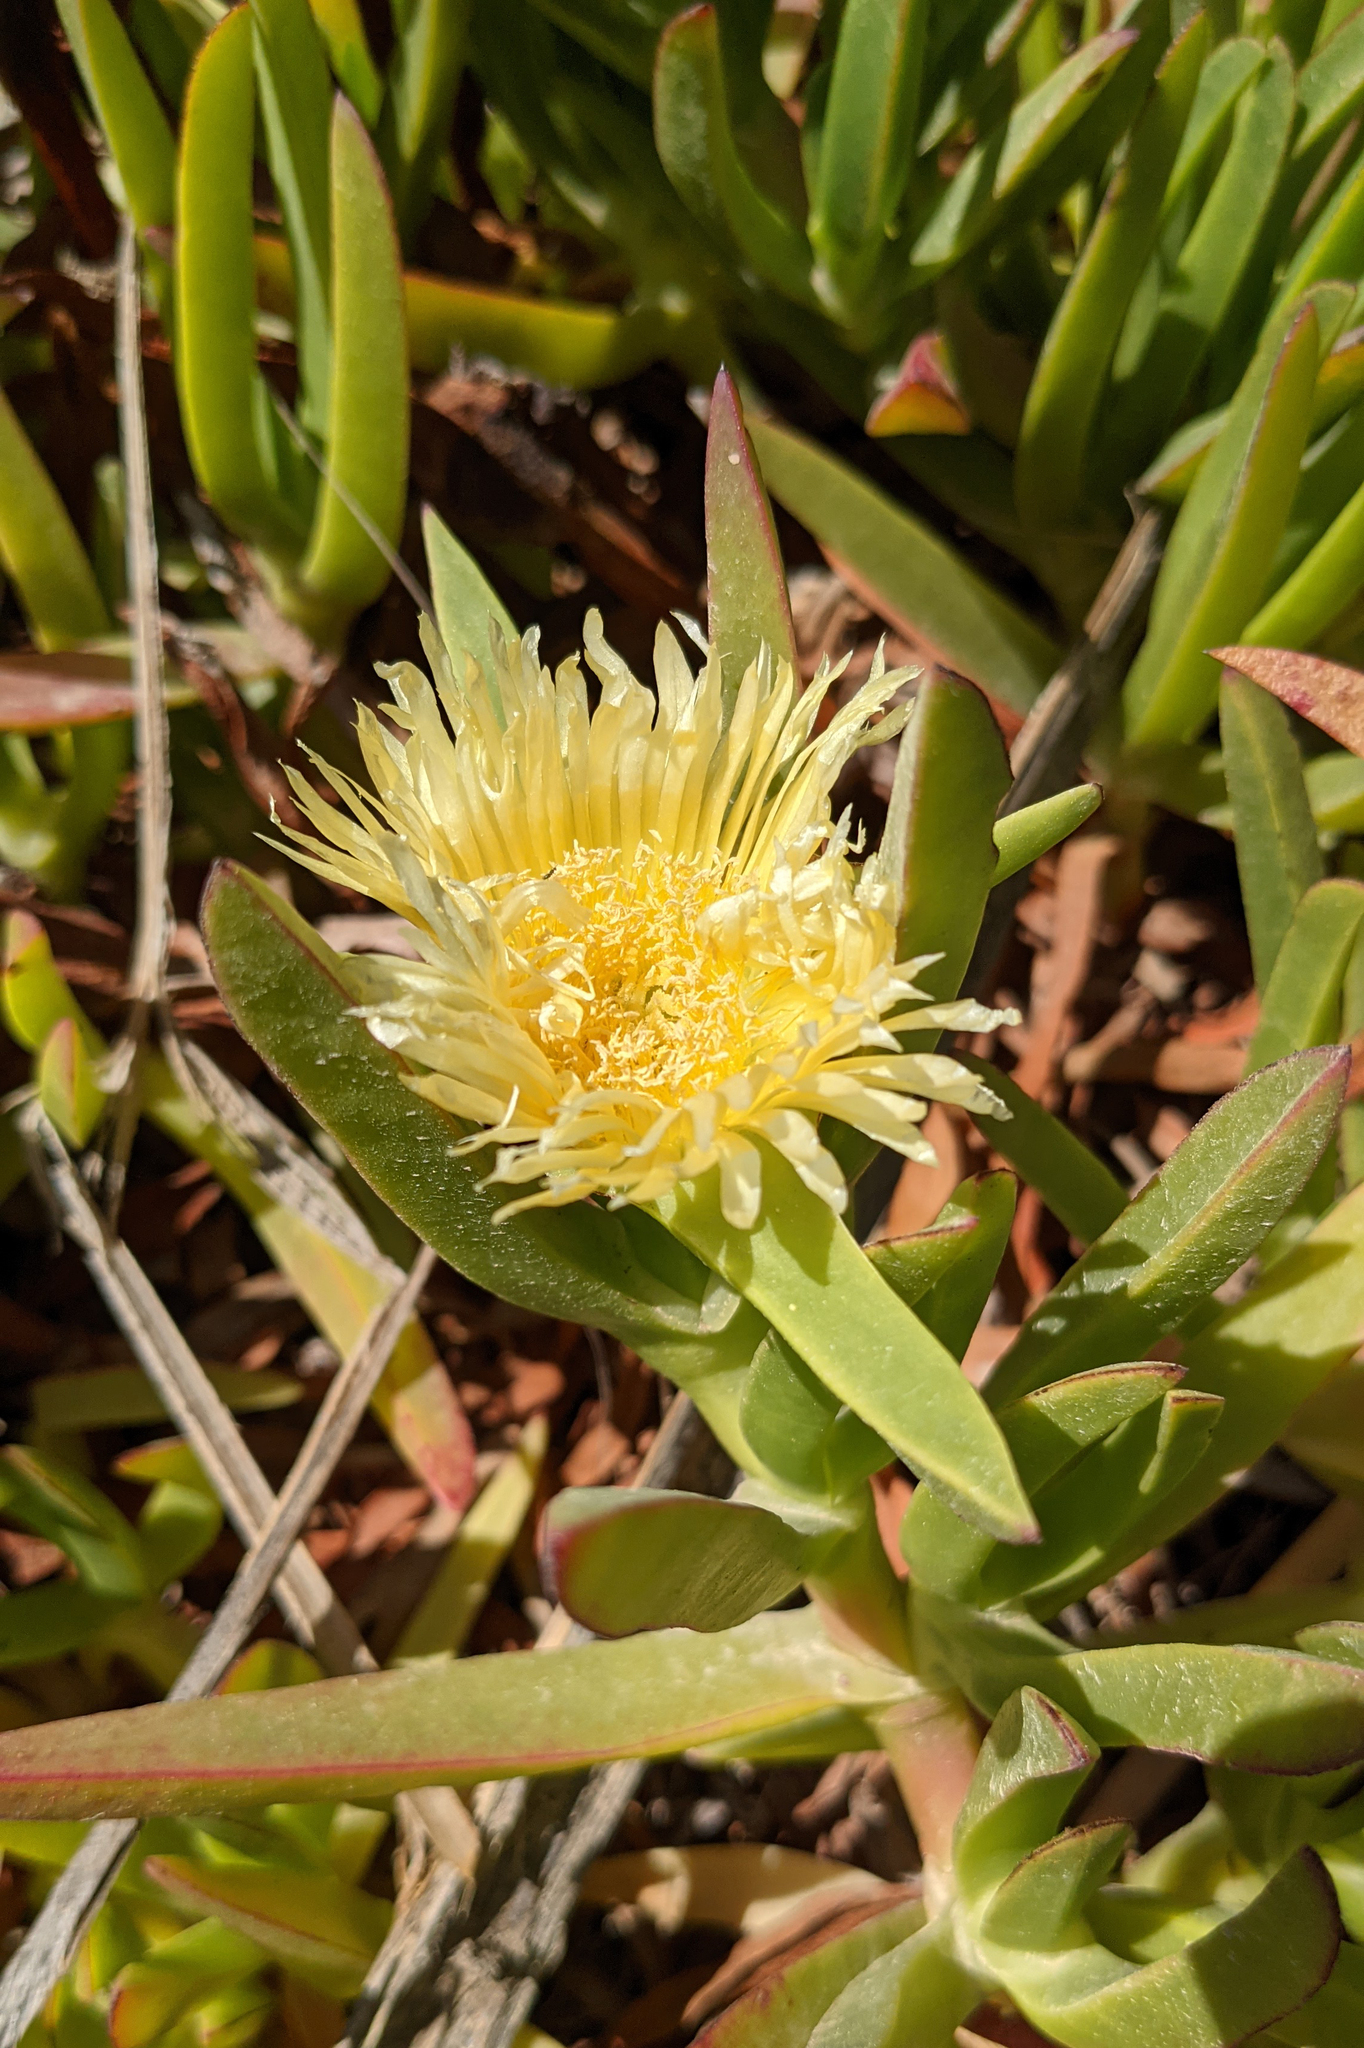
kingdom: Plantae
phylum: Tracheophyta
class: Magnoliopsida
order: Caryophyllales
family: Aizoaceae
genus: Carpobrotus
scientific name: Carpobrotus edulis
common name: Hottentot-fig
